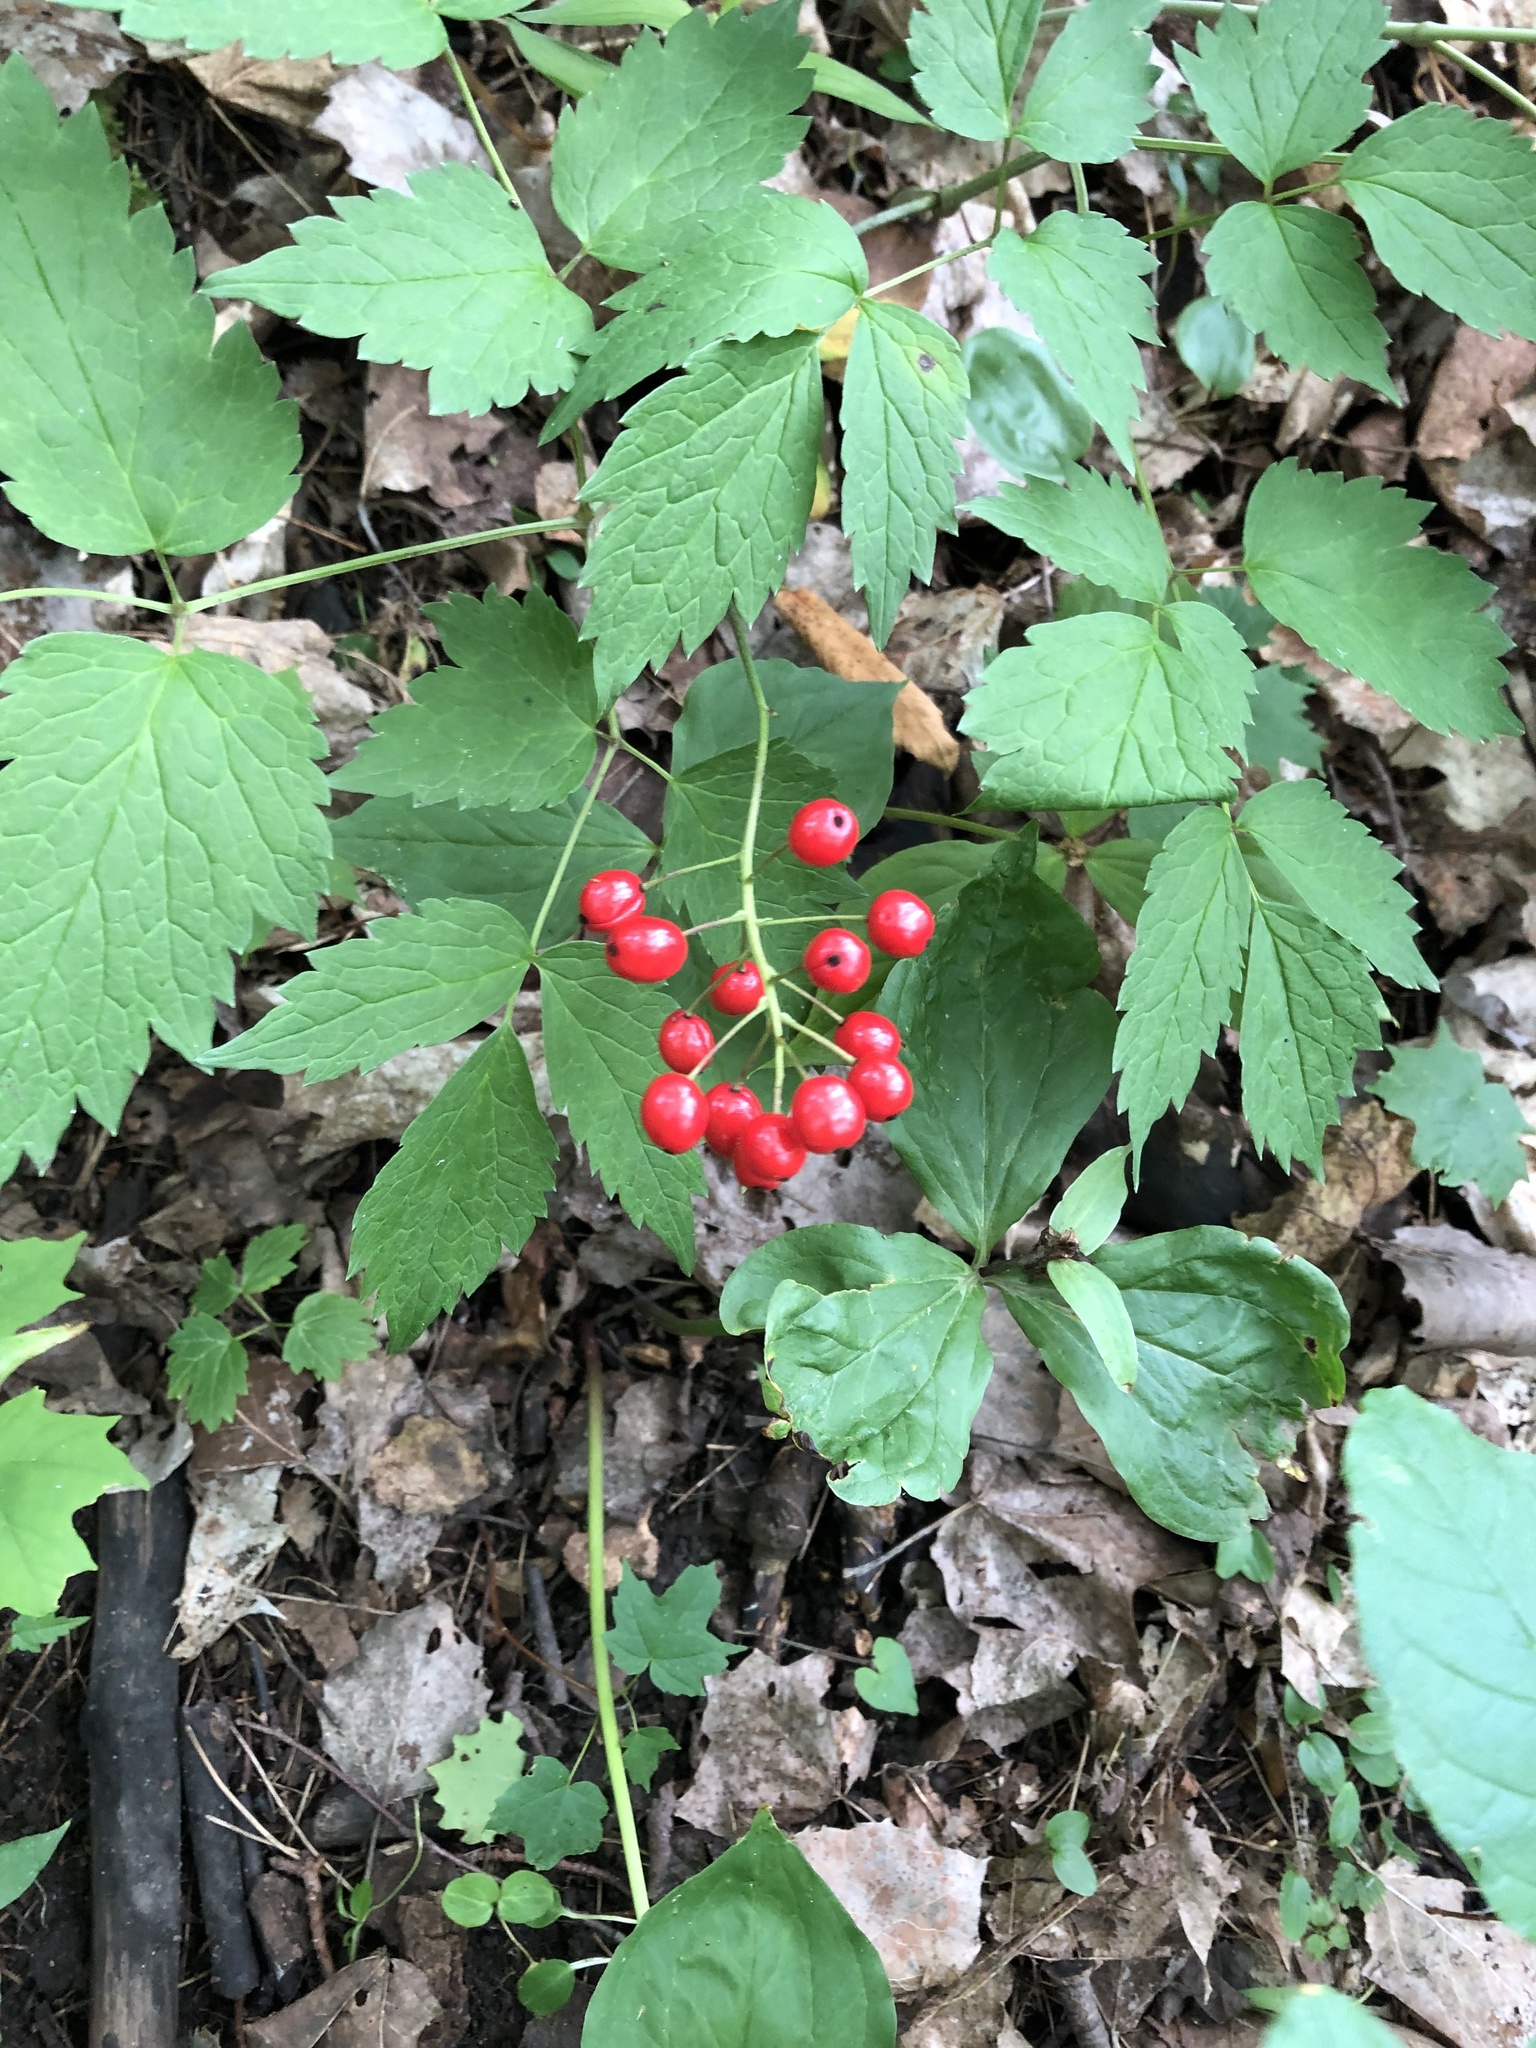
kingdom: Plantae
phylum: Tracheophyta
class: Magnoliopsida
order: Ranunculales
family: Ranunculaceae
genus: Actaea
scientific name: Actaea rubra
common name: Red baneberry
